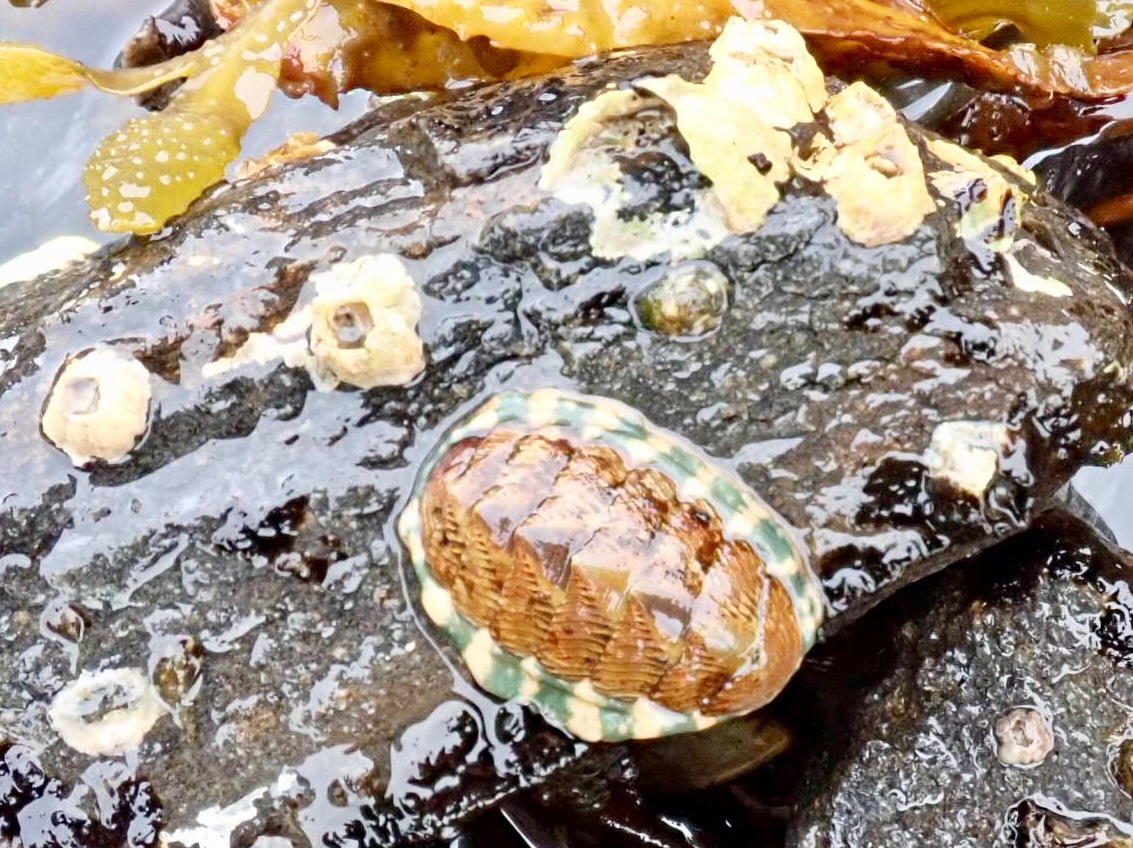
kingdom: Animalia
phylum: Mollusca
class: Polyplacophora
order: Chitonida
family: Tonicellidae
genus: Tonicella
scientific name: Tonicella lineata
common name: Lined chiton
